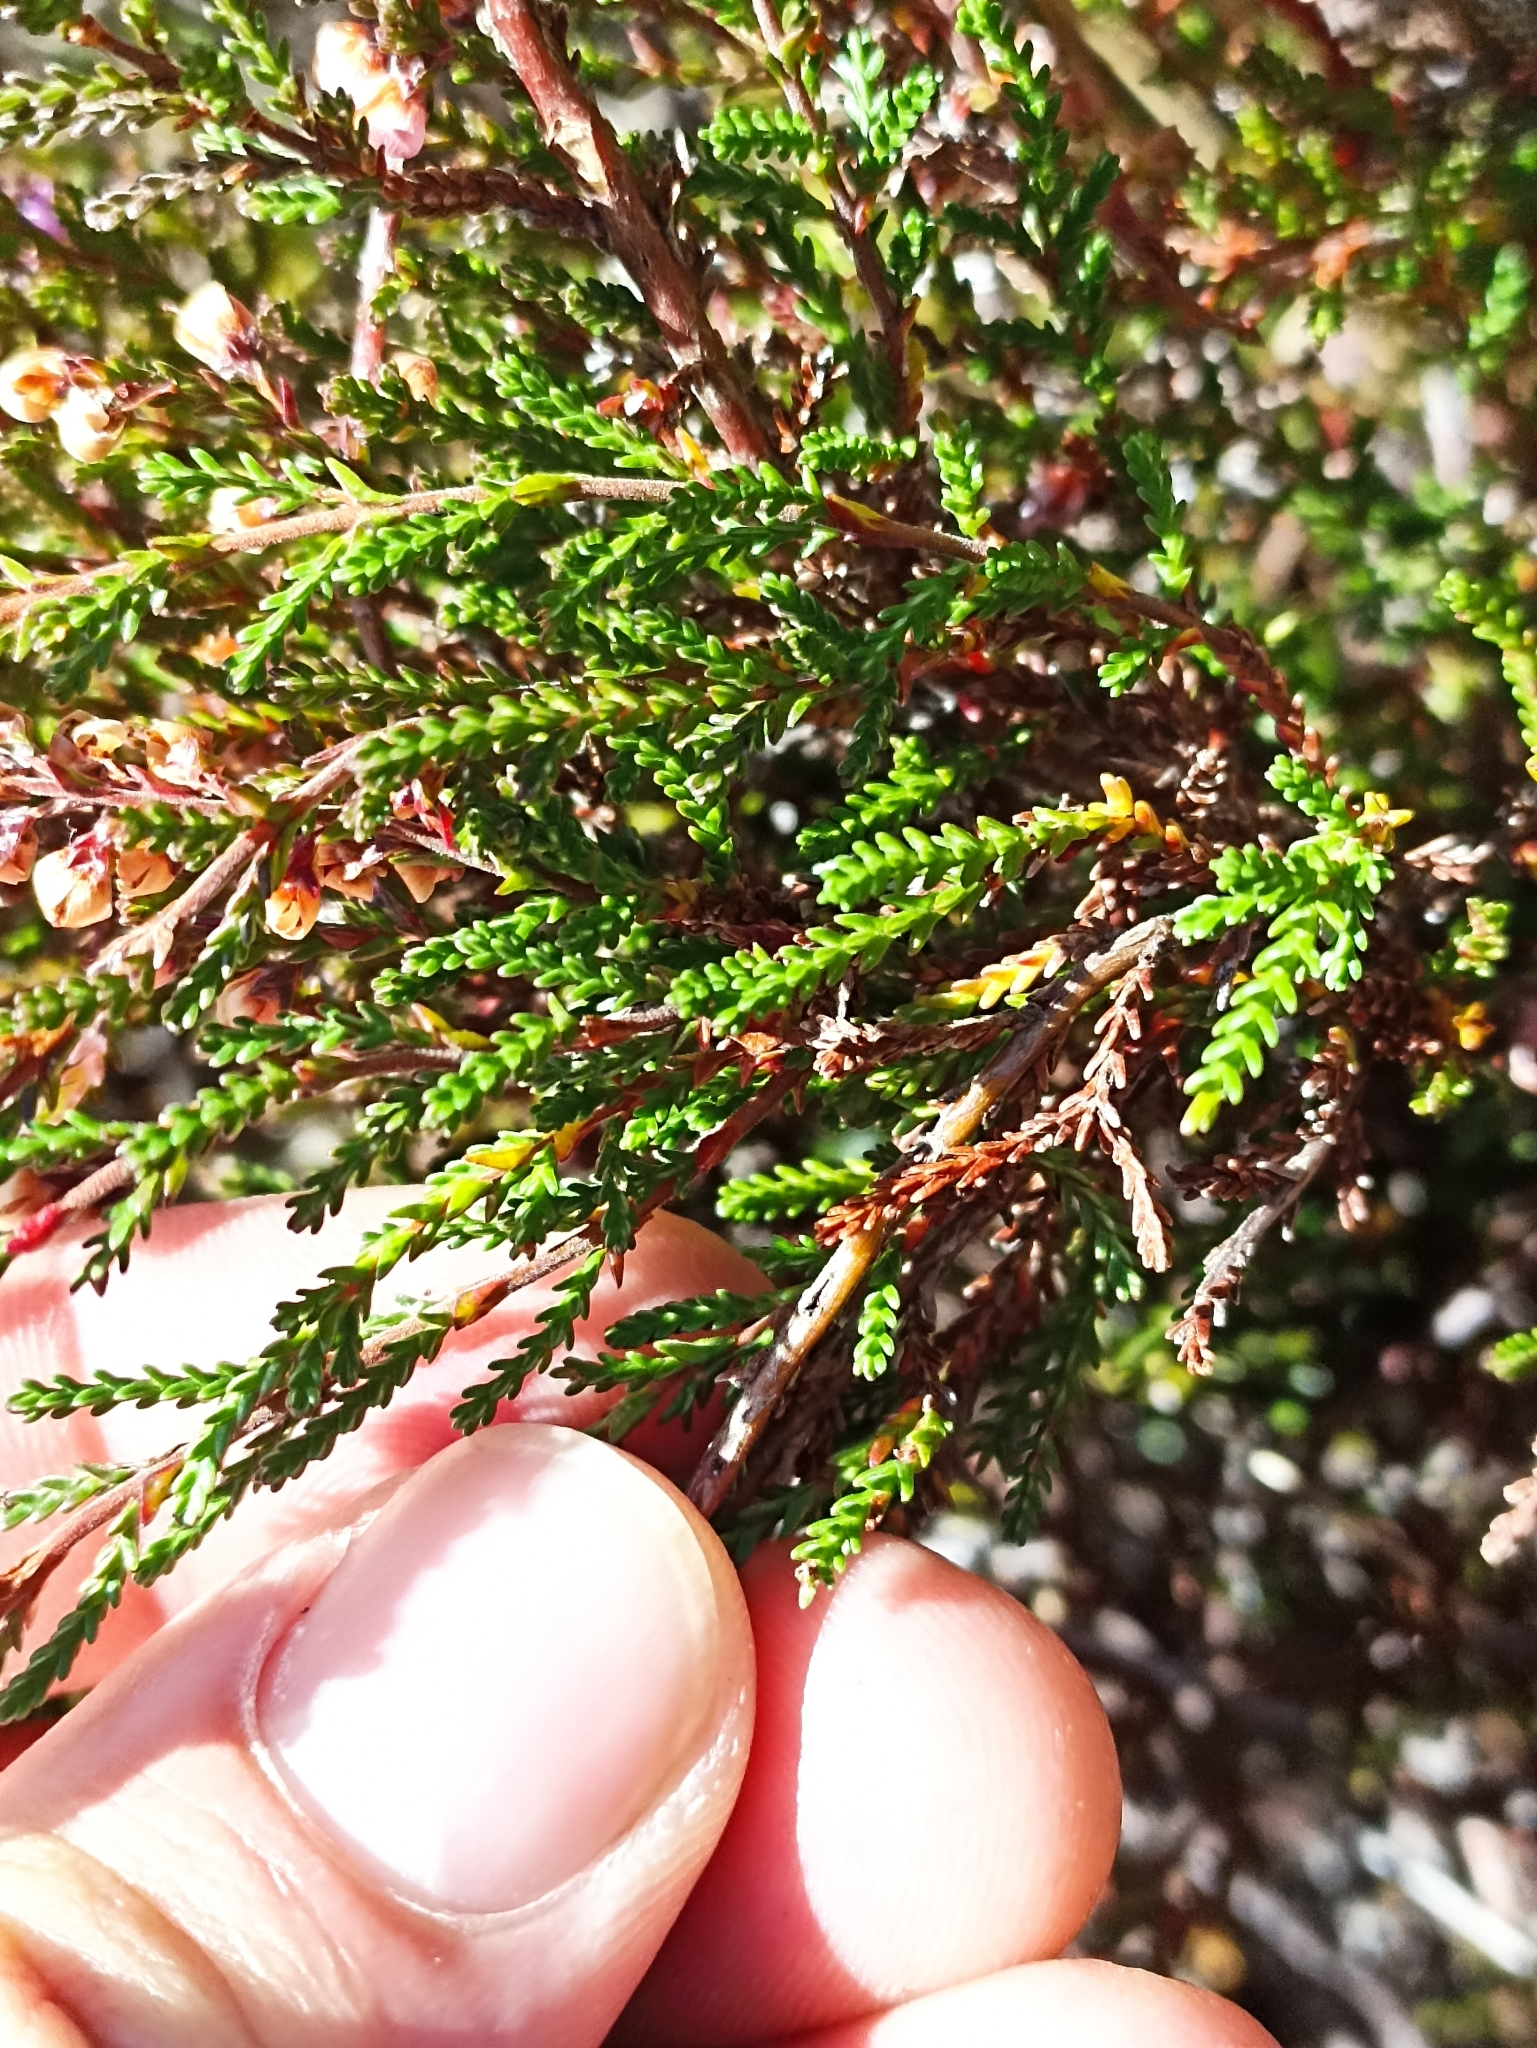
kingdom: Plantae
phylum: Tracheophyta
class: Magnoliopsida
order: Ericales
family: Ericaceae
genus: Calluna
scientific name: Calluna vulgaris
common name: Heather
